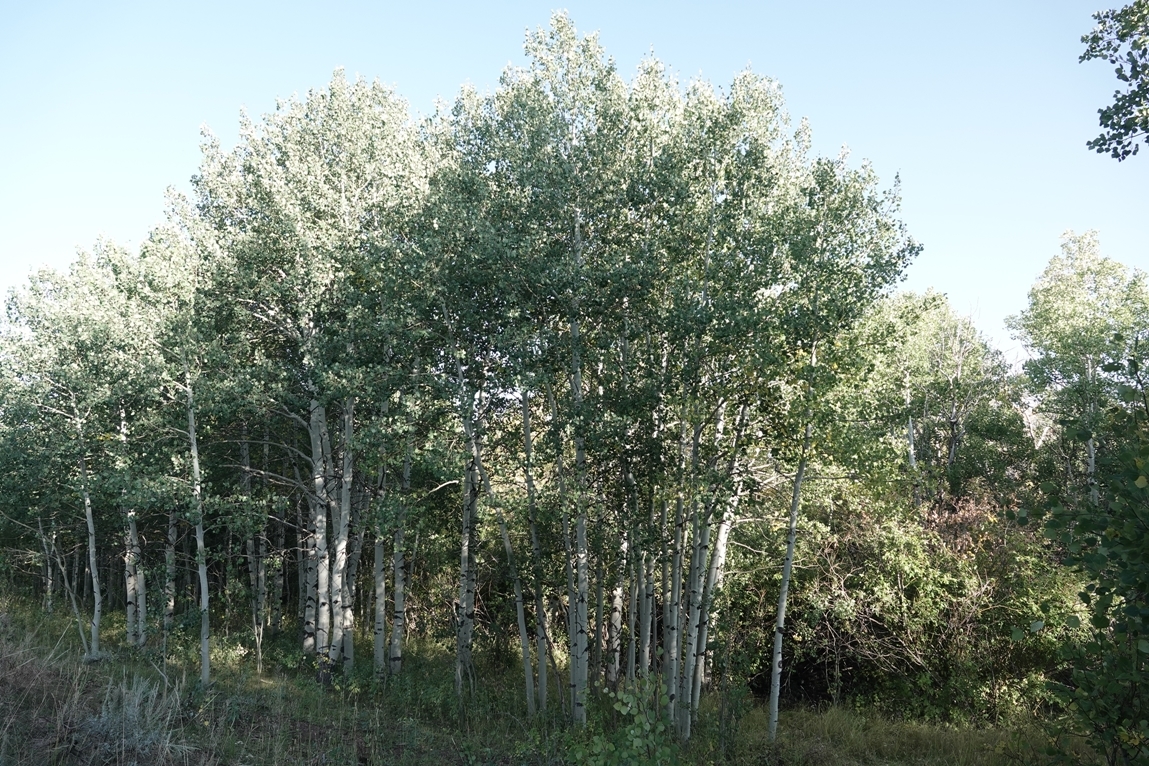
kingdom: Plantae
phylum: Tracheophyta
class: Magnoliopsida
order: Malpighiales
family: Salicaceae
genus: Populus
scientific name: Populus tremuloides
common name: Quaking aspen
